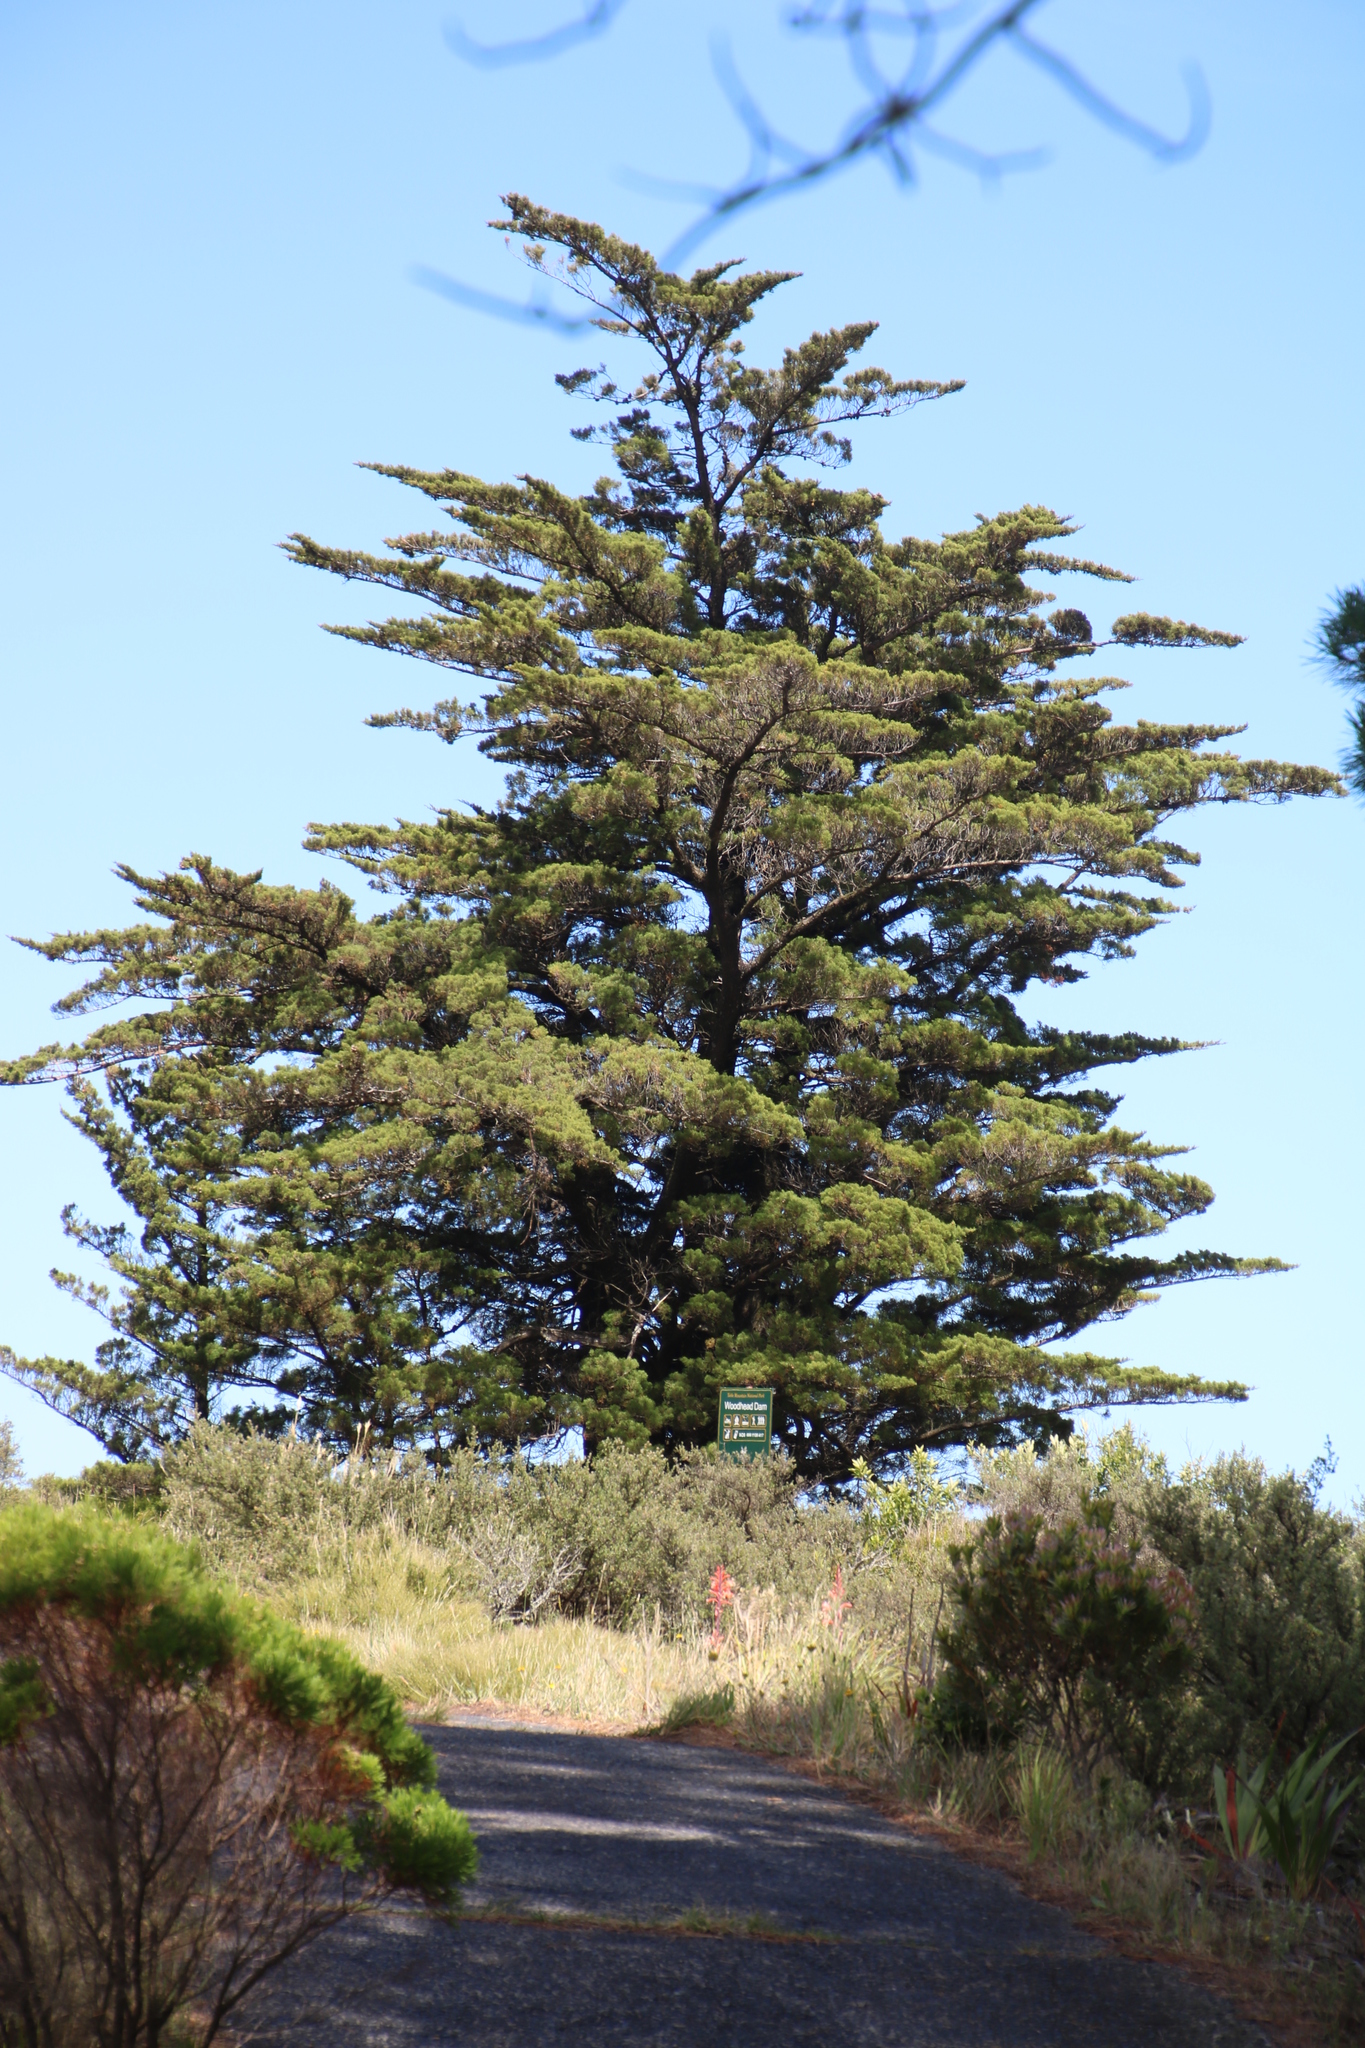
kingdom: Plantae
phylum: Tracheophyta
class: Pinopsida
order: Pinales
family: Cupressaceae
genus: Cupressus
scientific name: Cupressus macrocarpa
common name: Monterey cypress
